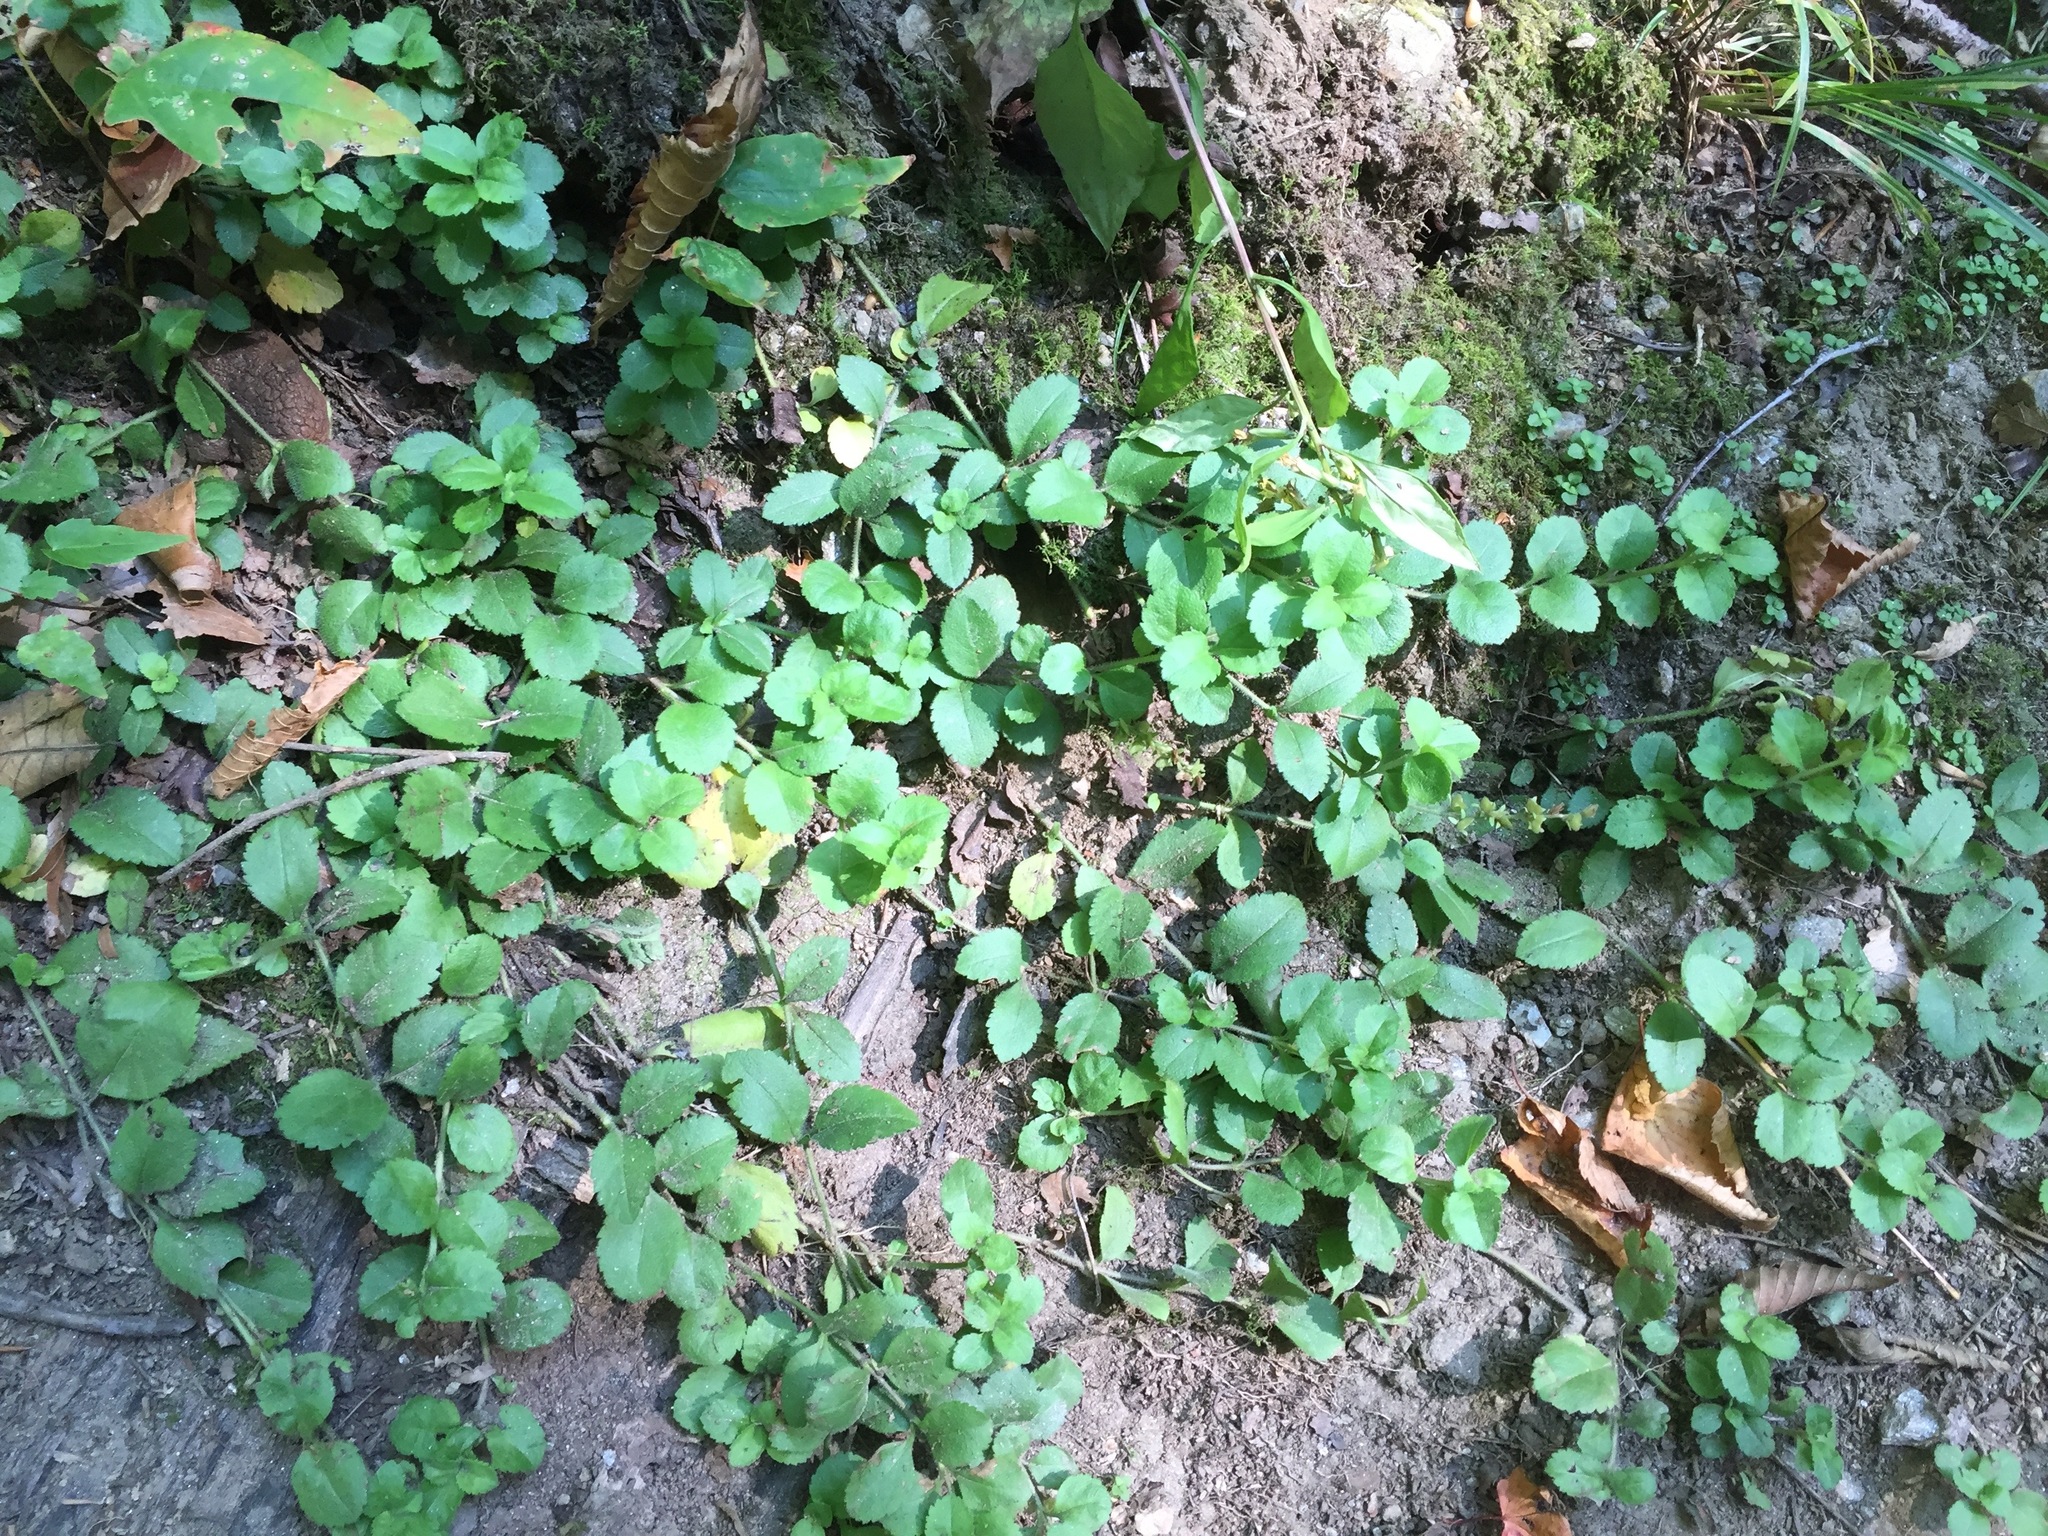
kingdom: Plantae
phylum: Tracheophyta
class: Magnoliopsida
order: Lamiales
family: Plantaginaceae
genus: Veronica
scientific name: Veronica officinalis
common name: Common speedwell
